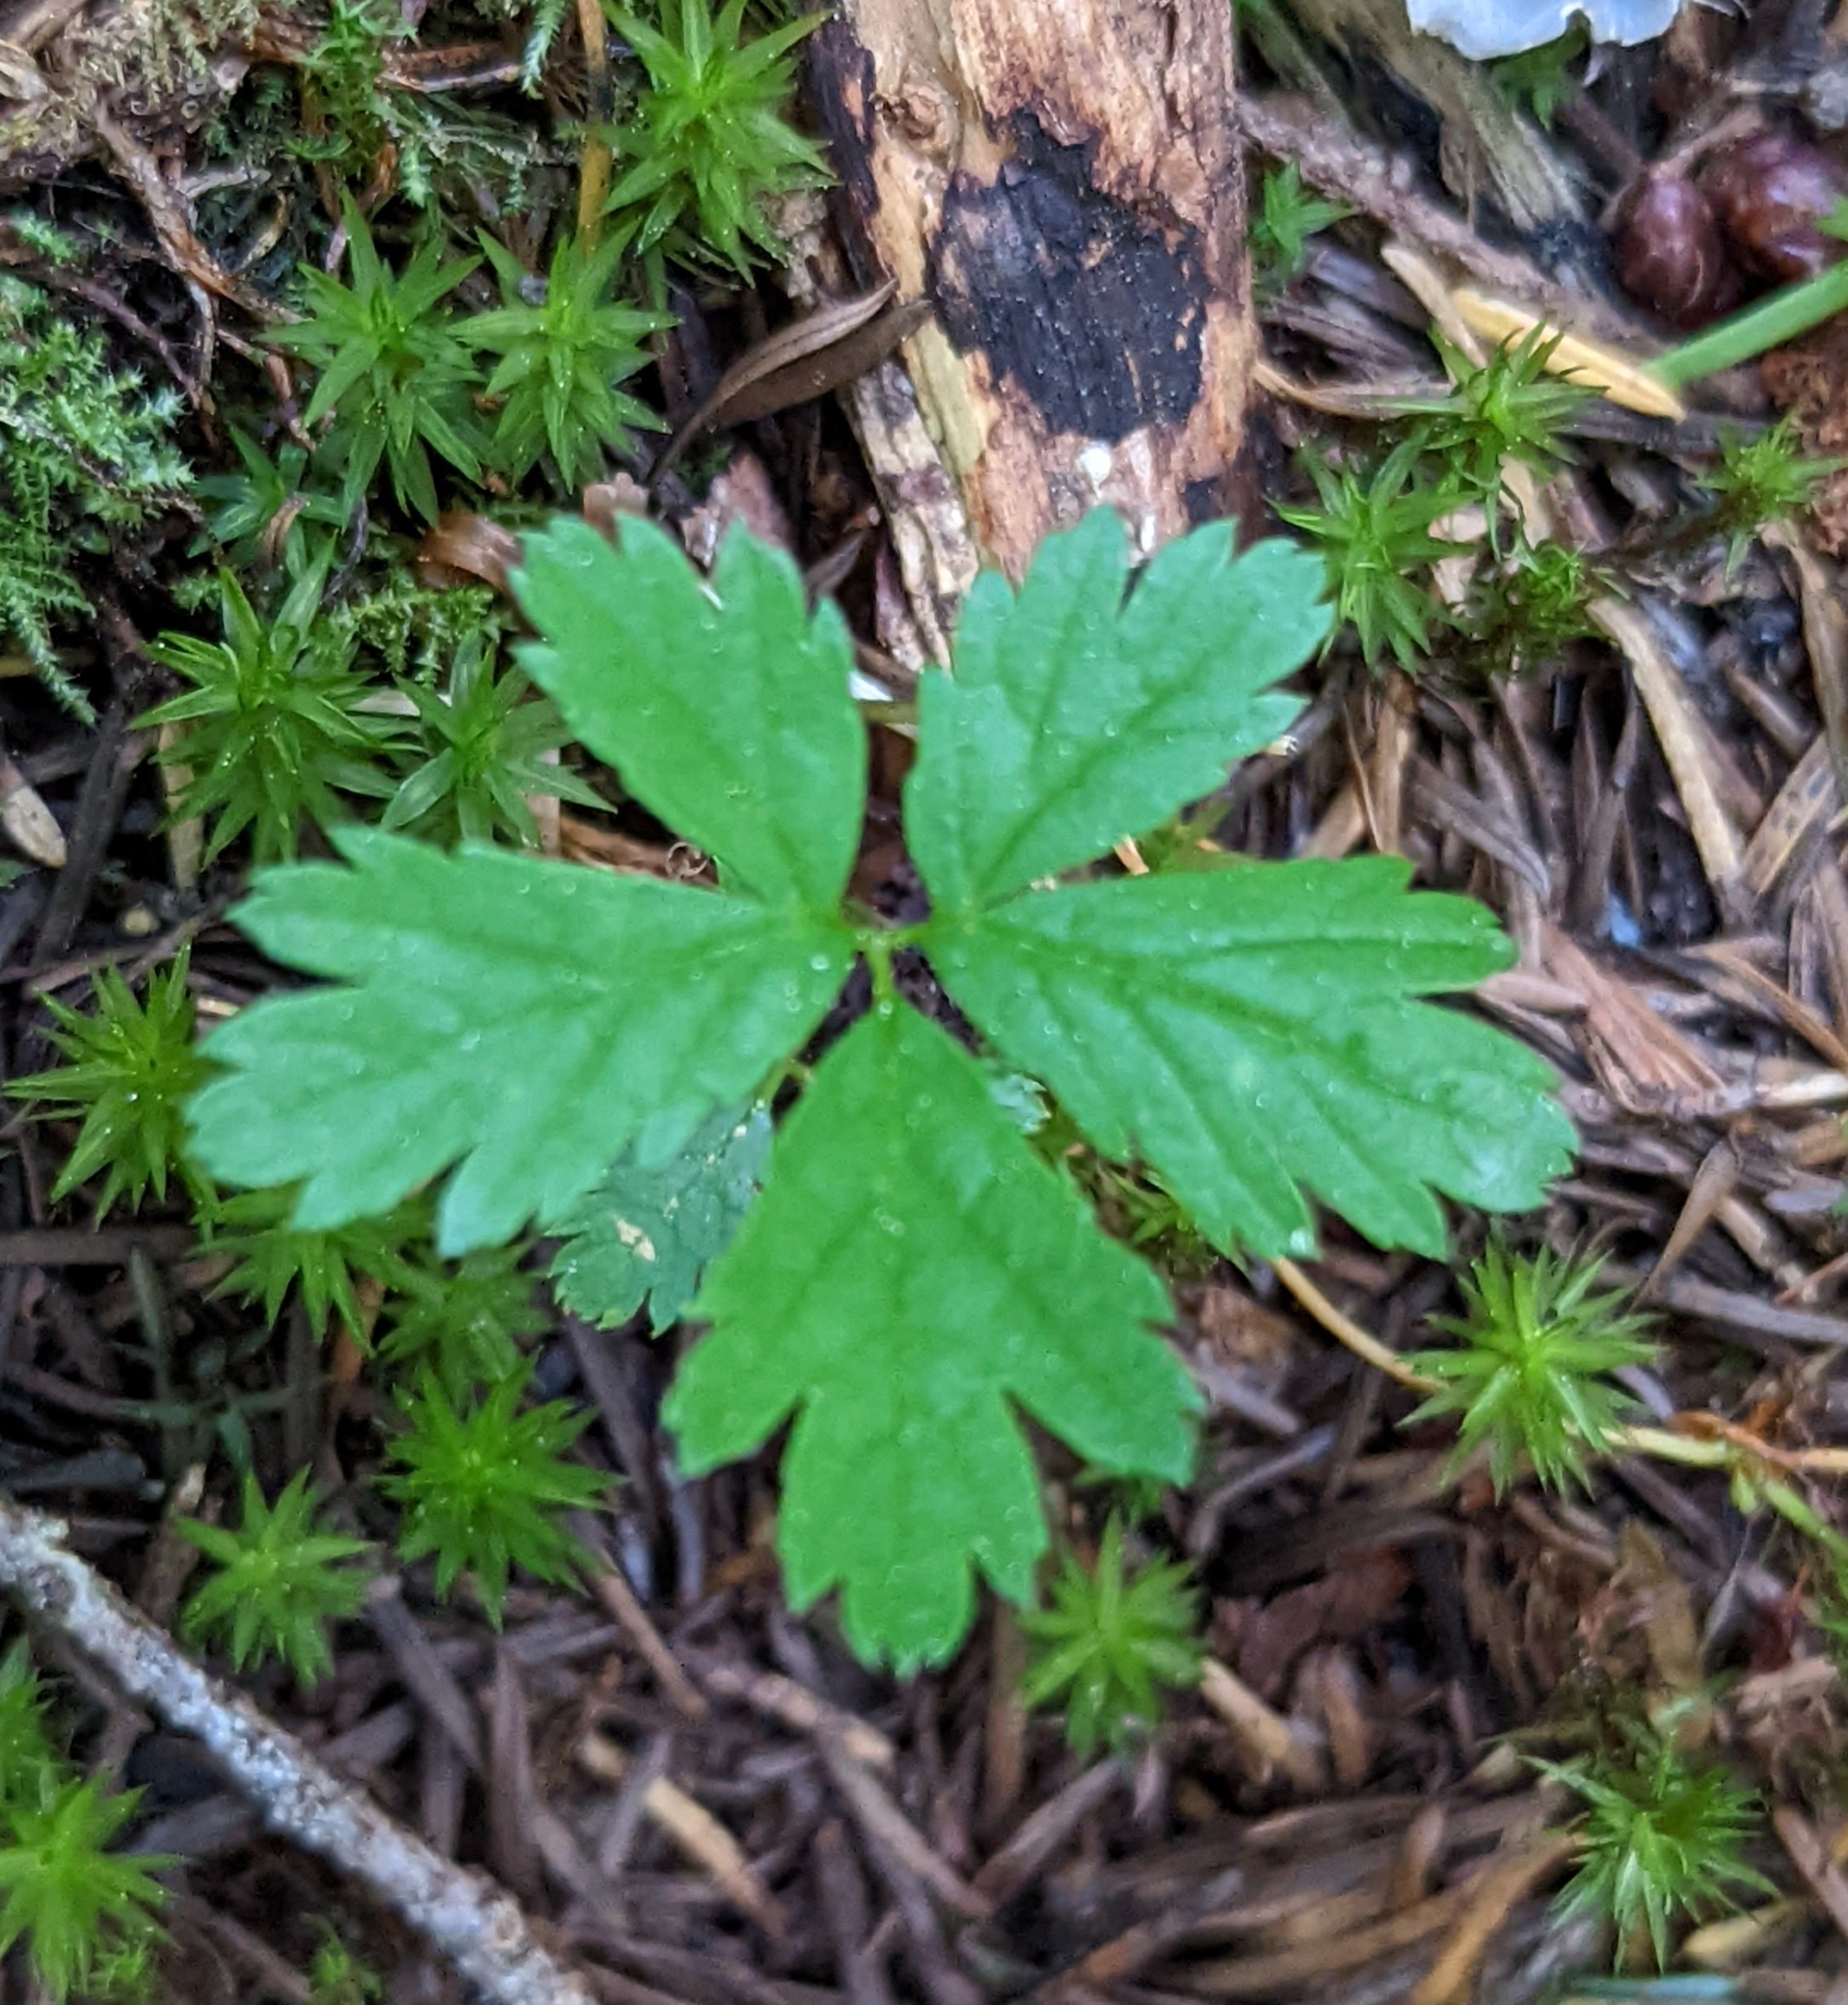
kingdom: Plantae
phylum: Tracheophyta
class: Magnoliopsida
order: Rosales
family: Rosaceae
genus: Rubus
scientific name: Rubus pedatus
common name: Creeping raspberry
